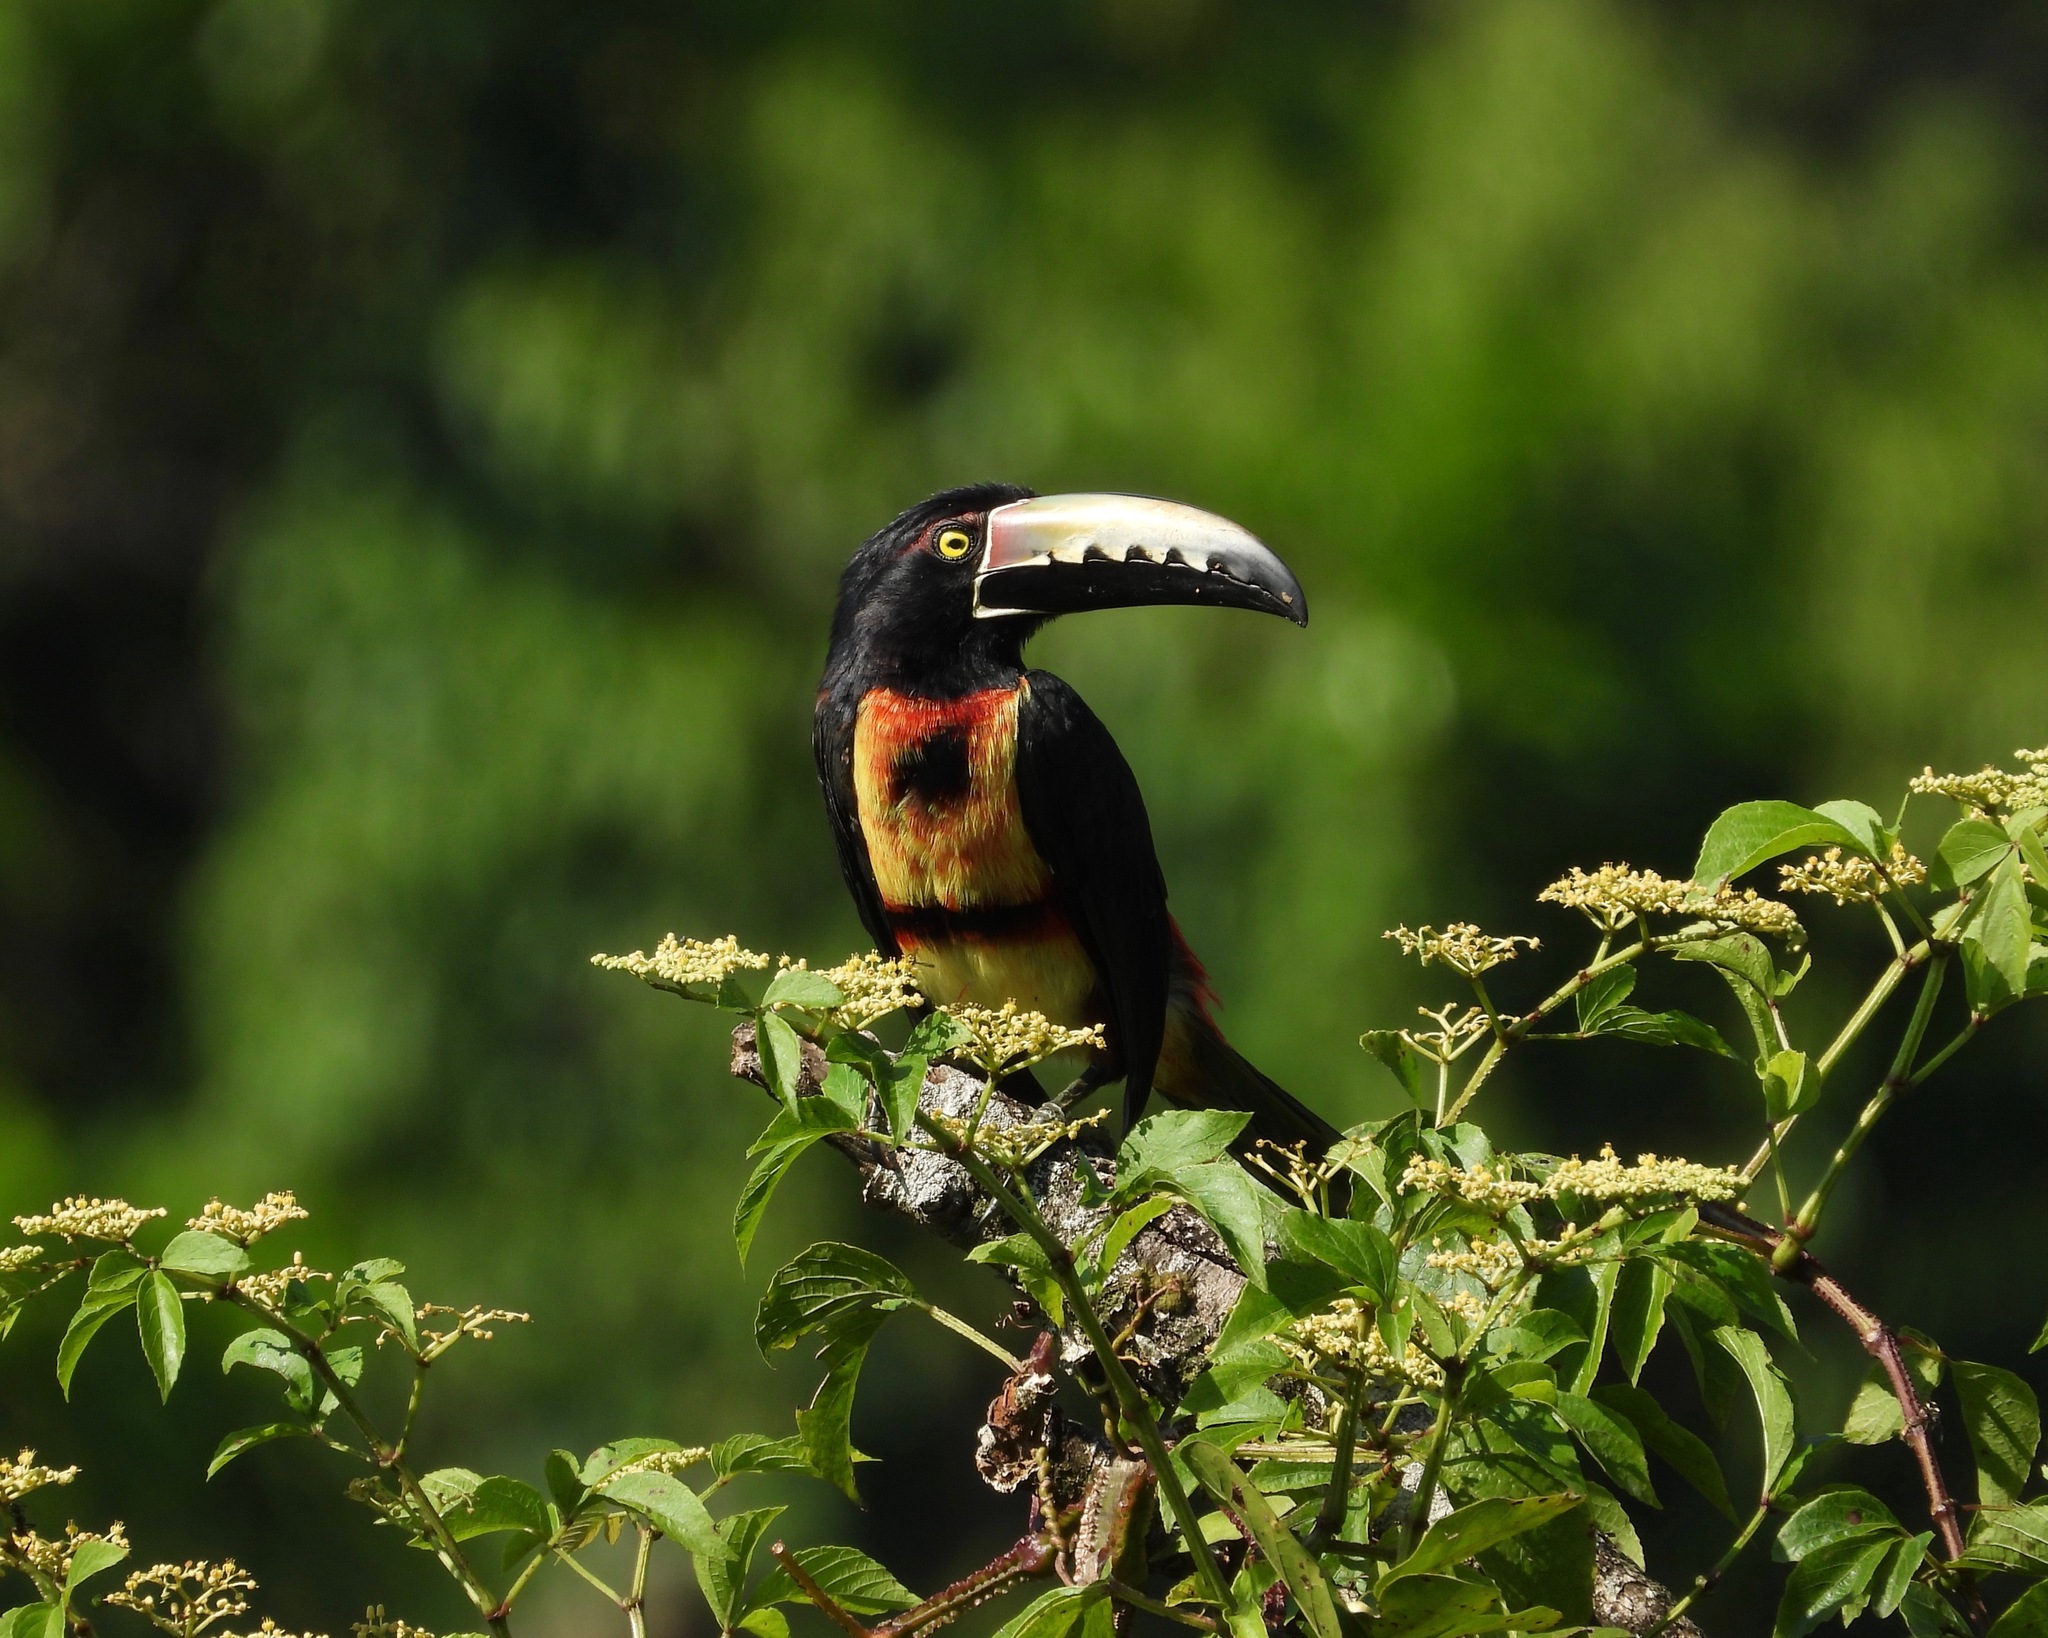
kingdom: Animalia
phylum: Chordata
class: Aves
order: Piciformes
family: Ramphastidae
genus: Pteroglossus
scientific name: Pteroglossus torquatus
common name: Collared aracari
